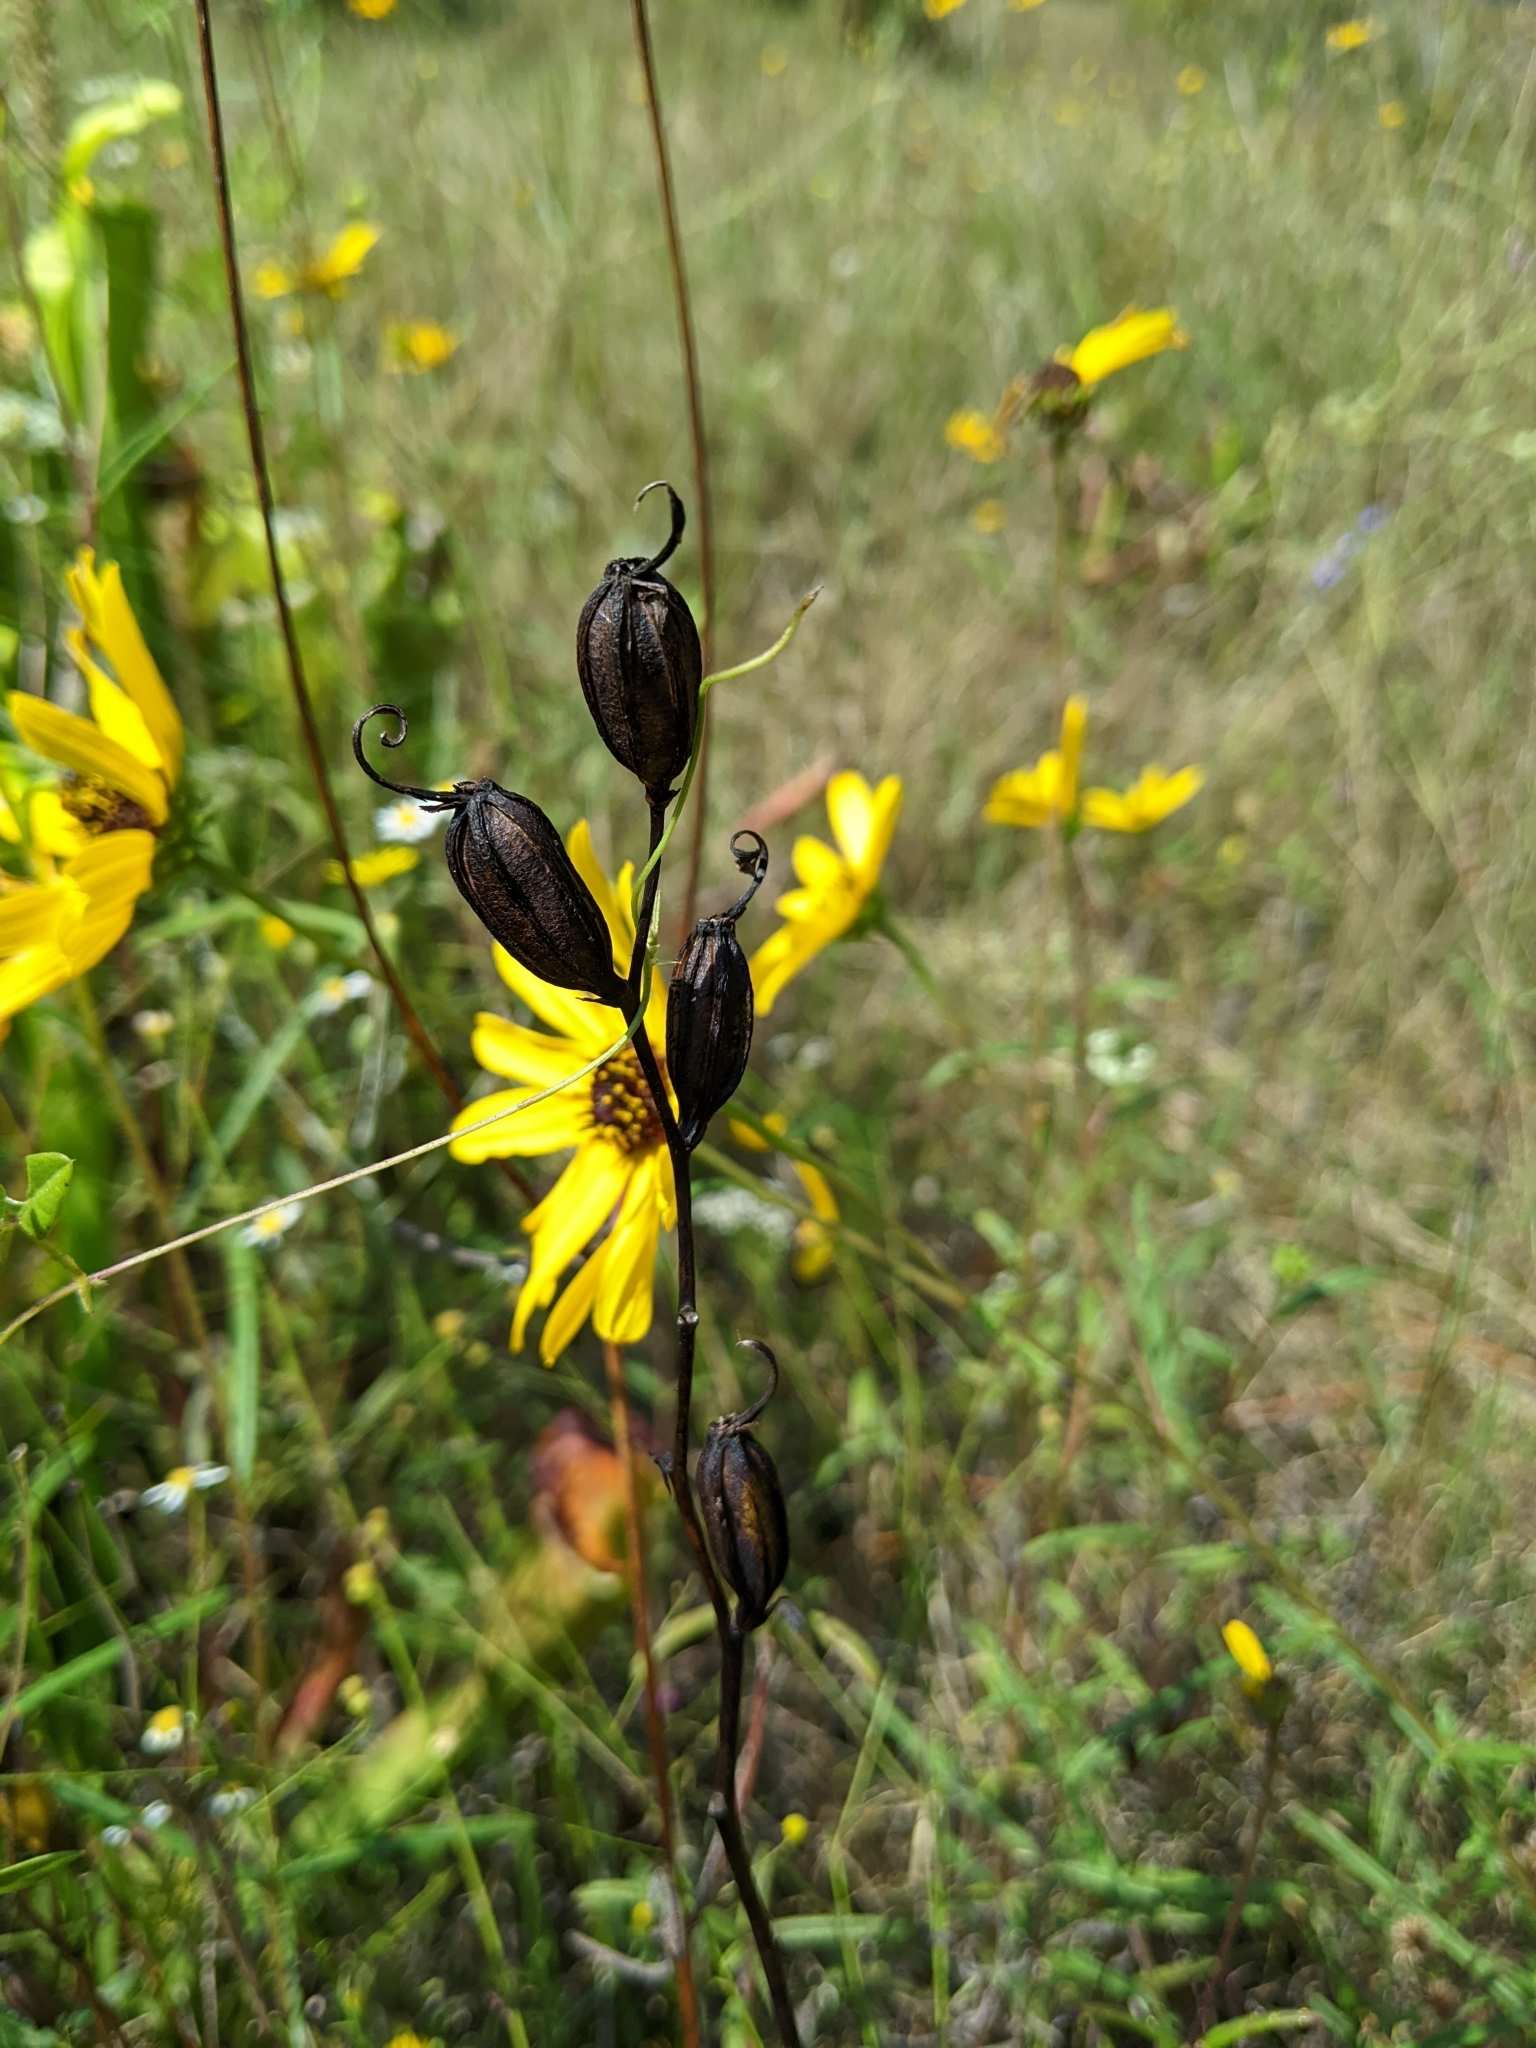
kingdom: Plantae
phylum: Tracheophyta
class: Liliopsida
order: Asparagales
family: Orchidaceae
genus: Calopogon
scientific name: Calopogon tuberosus
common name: Grass-pink
